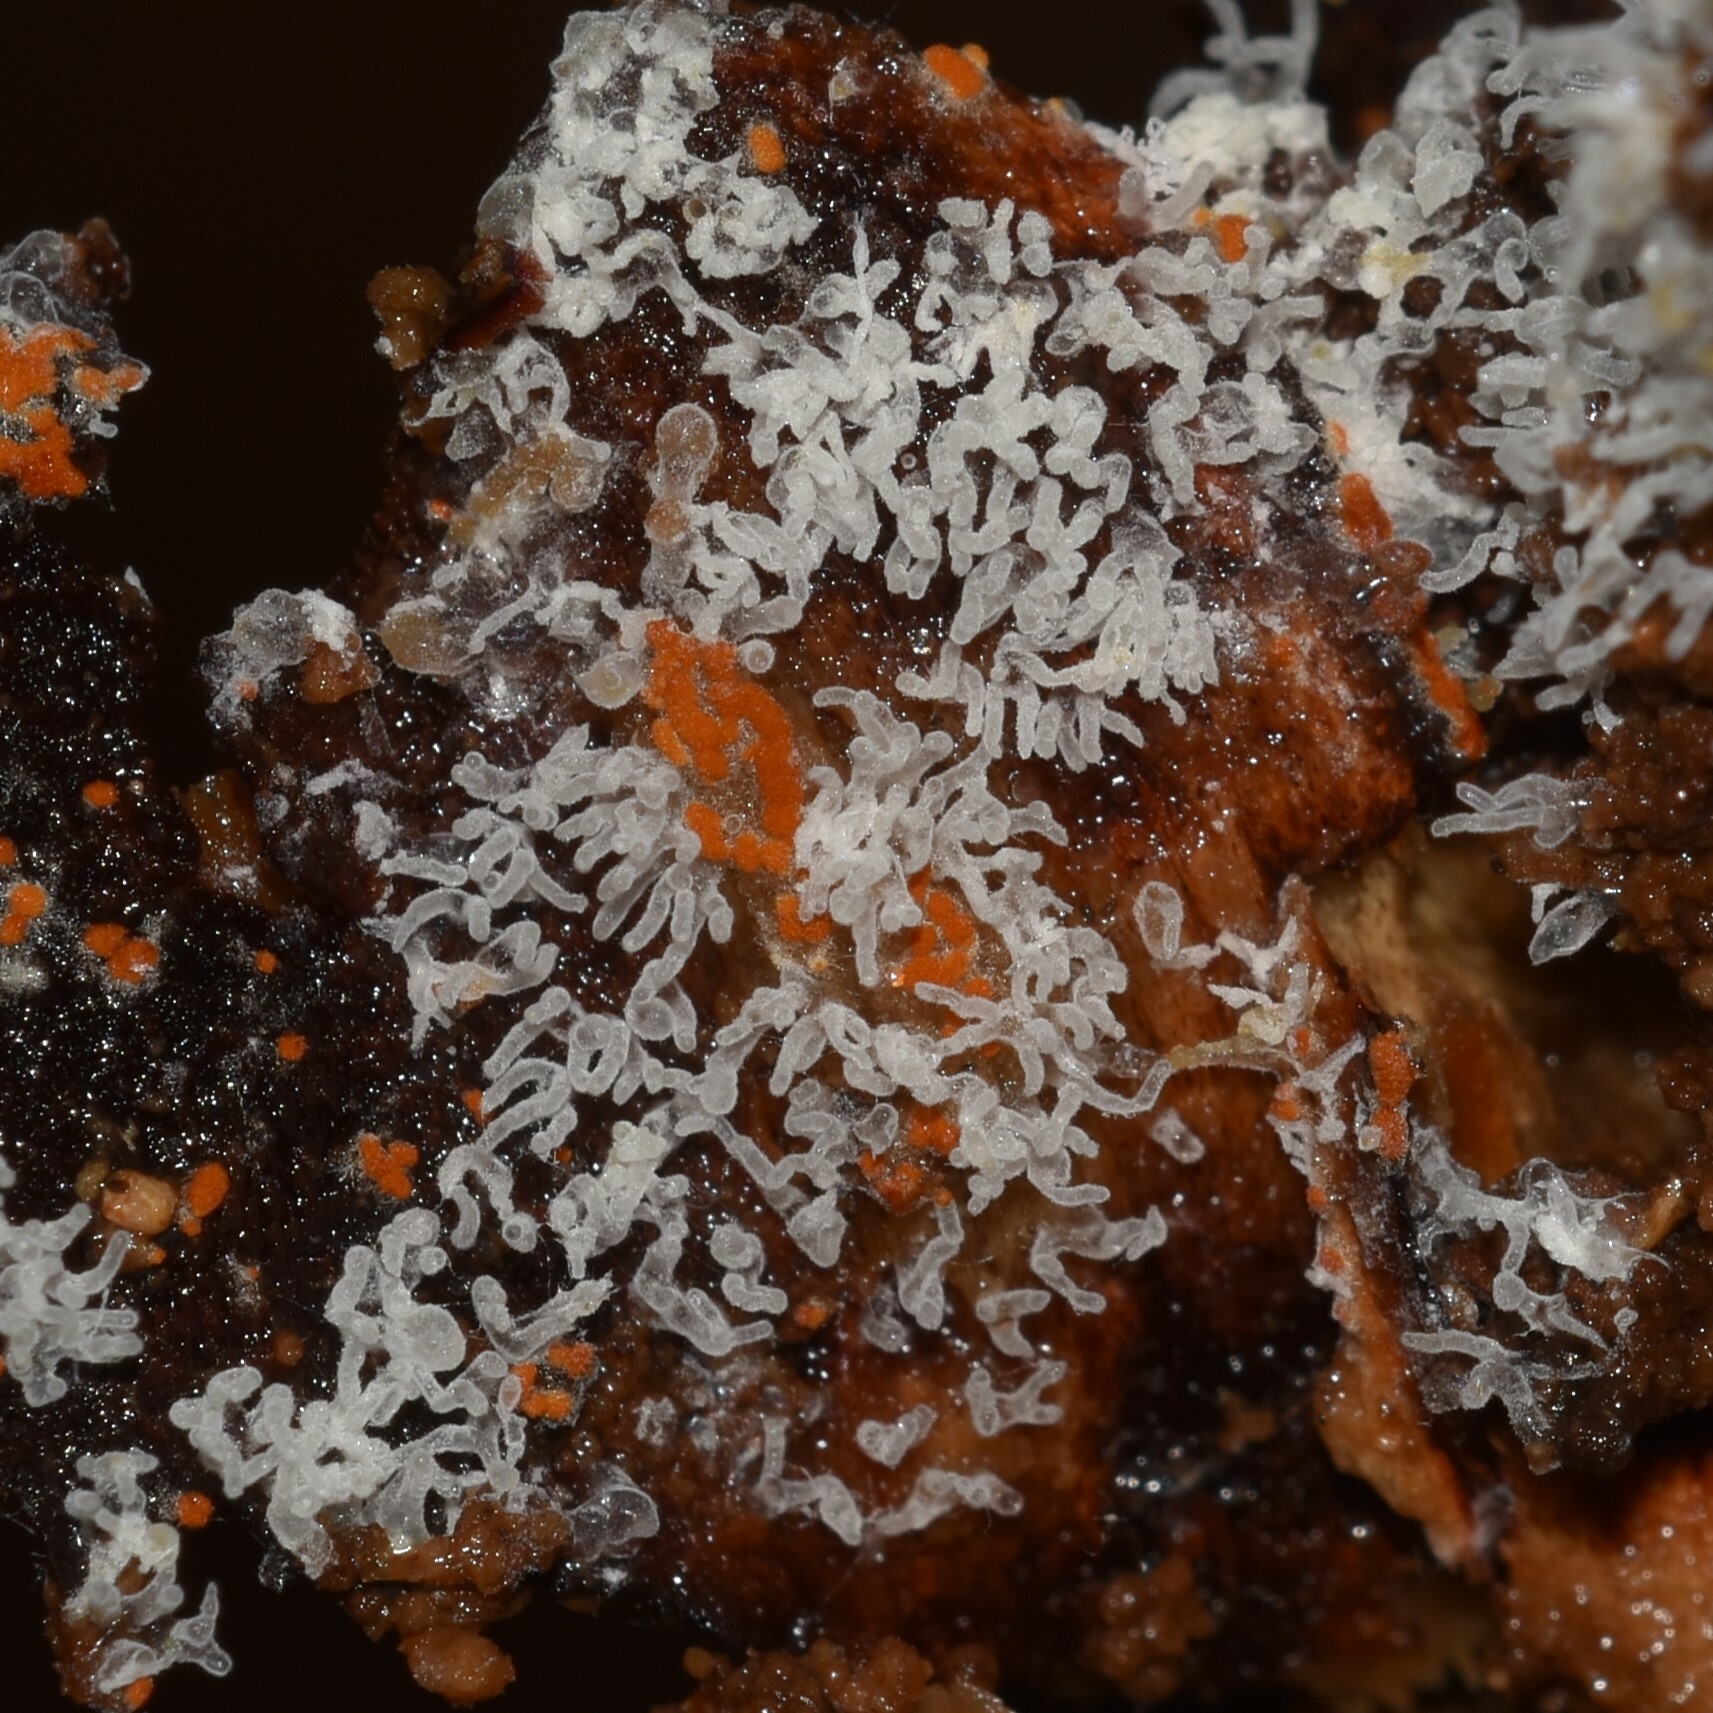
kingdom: Protozoa
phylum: Mycetozoa
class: Protosteliomycetes
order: Ceratiomyxales
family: Ceratiomyxaceae
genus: Ceratiomyxa
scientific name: Ceratiomyxa fruticulosa
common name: Honeycomb coral slime mold
